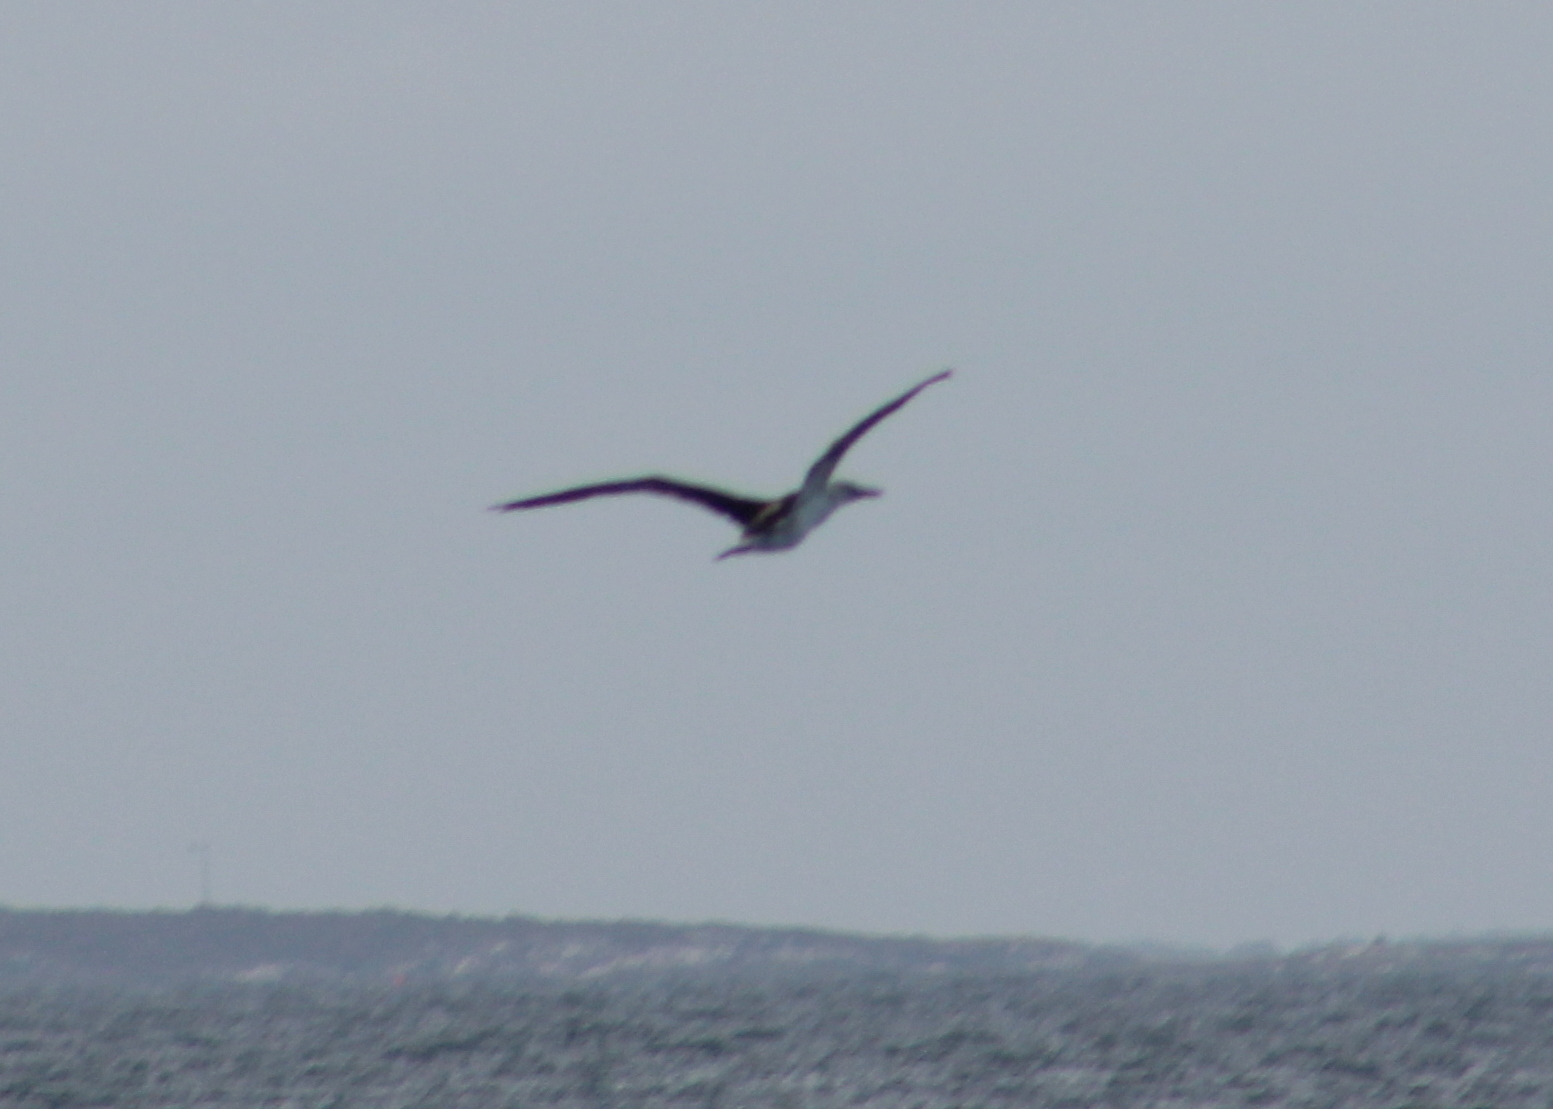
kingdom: Animalia
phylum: Chordata
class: Aves
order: Suliformes
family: Sulidae
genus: Morus
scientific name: Morus bassanus
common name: Northern gannet
